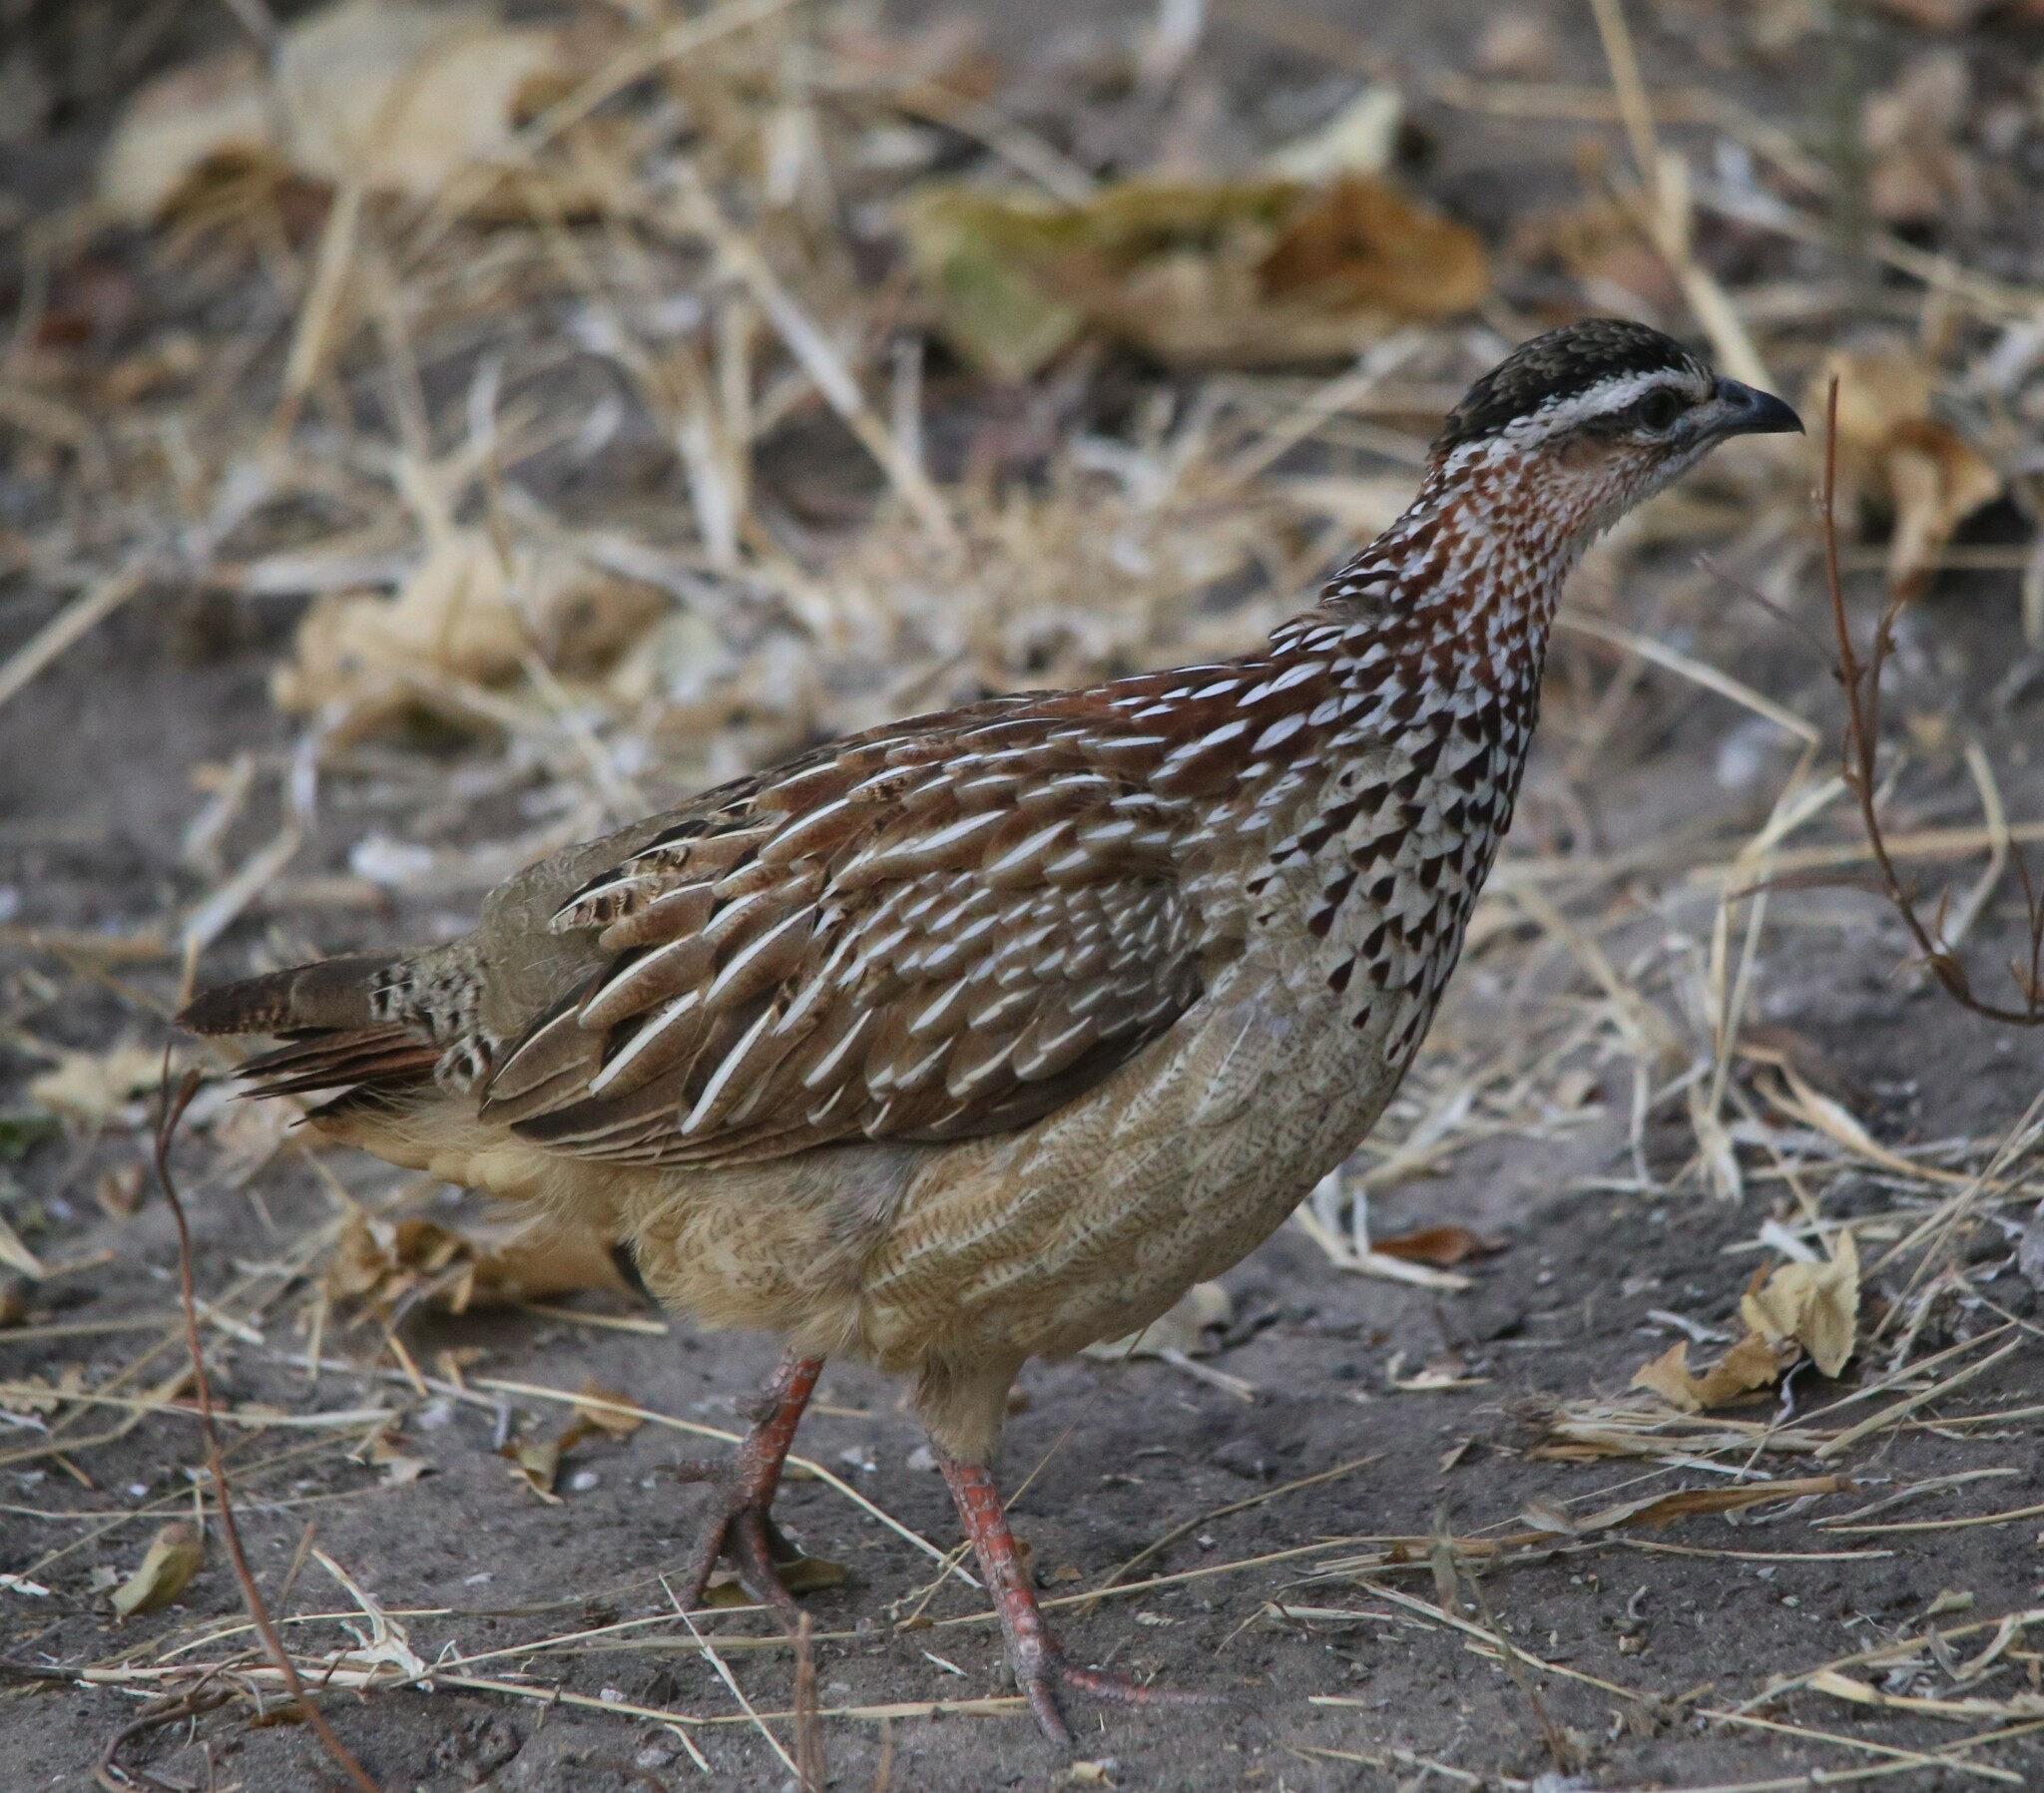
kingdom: Animalia
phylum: Chordata
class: Aves
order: Galliformes
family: Phasianidae
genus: Ortygornis
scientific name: Ortygornis sephaena
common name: Crested francolin
